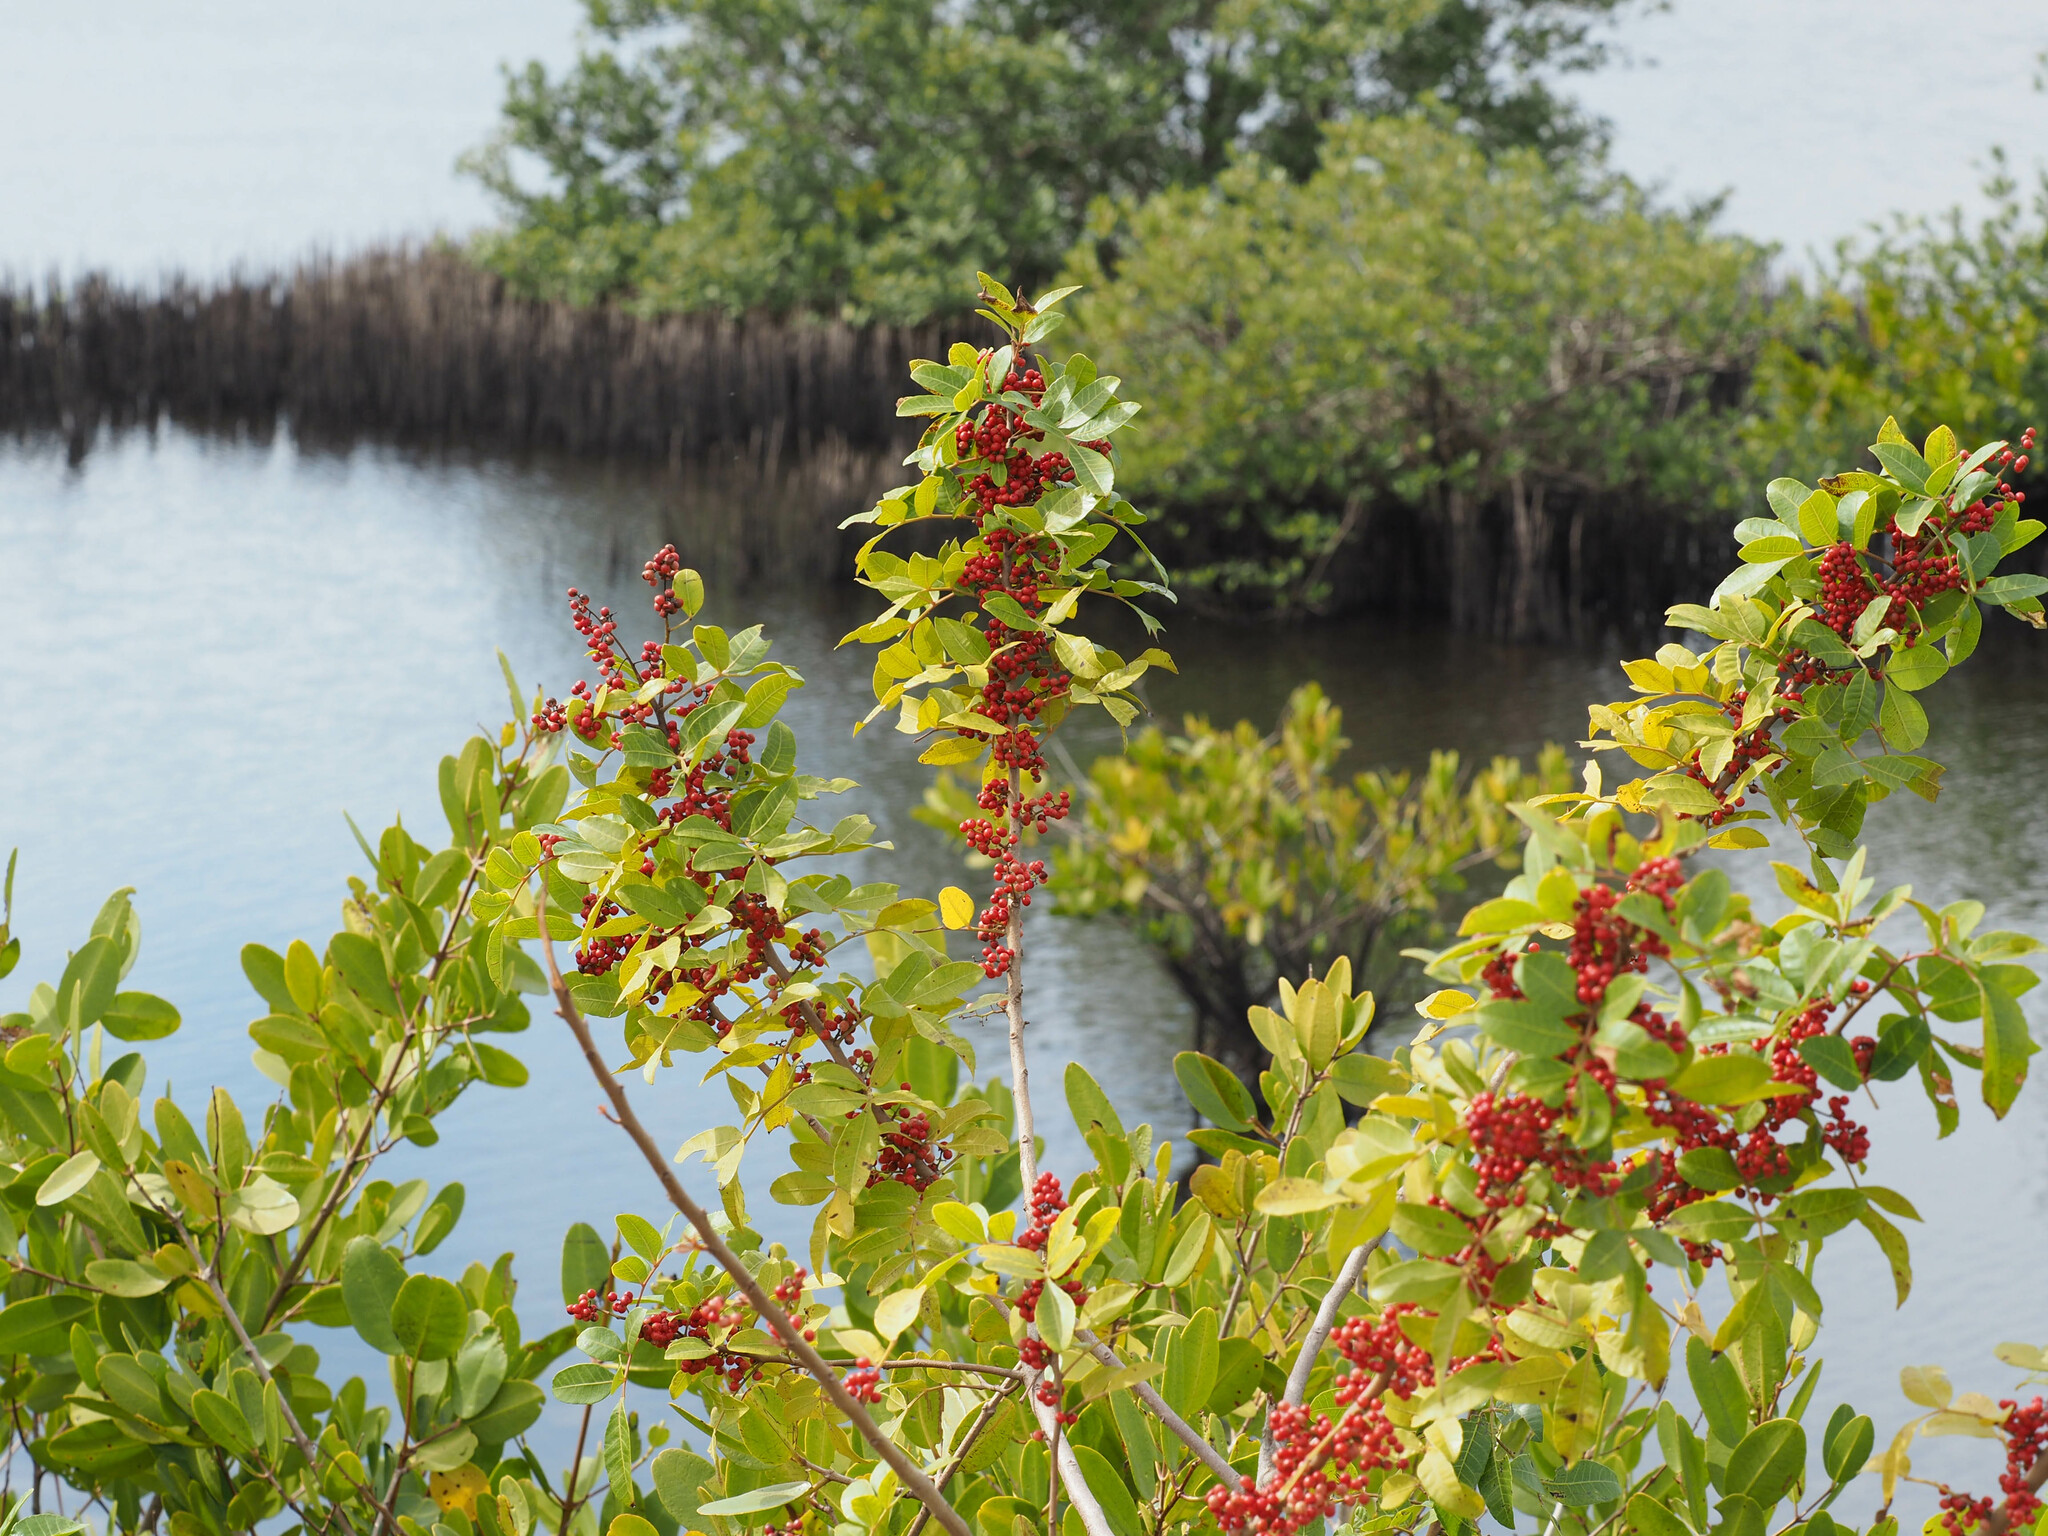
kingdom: Plantae
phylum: Tracheophyta
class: Magnoliopsida
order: Sapindales
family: Anacardiaceae
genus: Schinus
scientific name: Schinus terebinthifolia
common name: Brazilian peppertree
